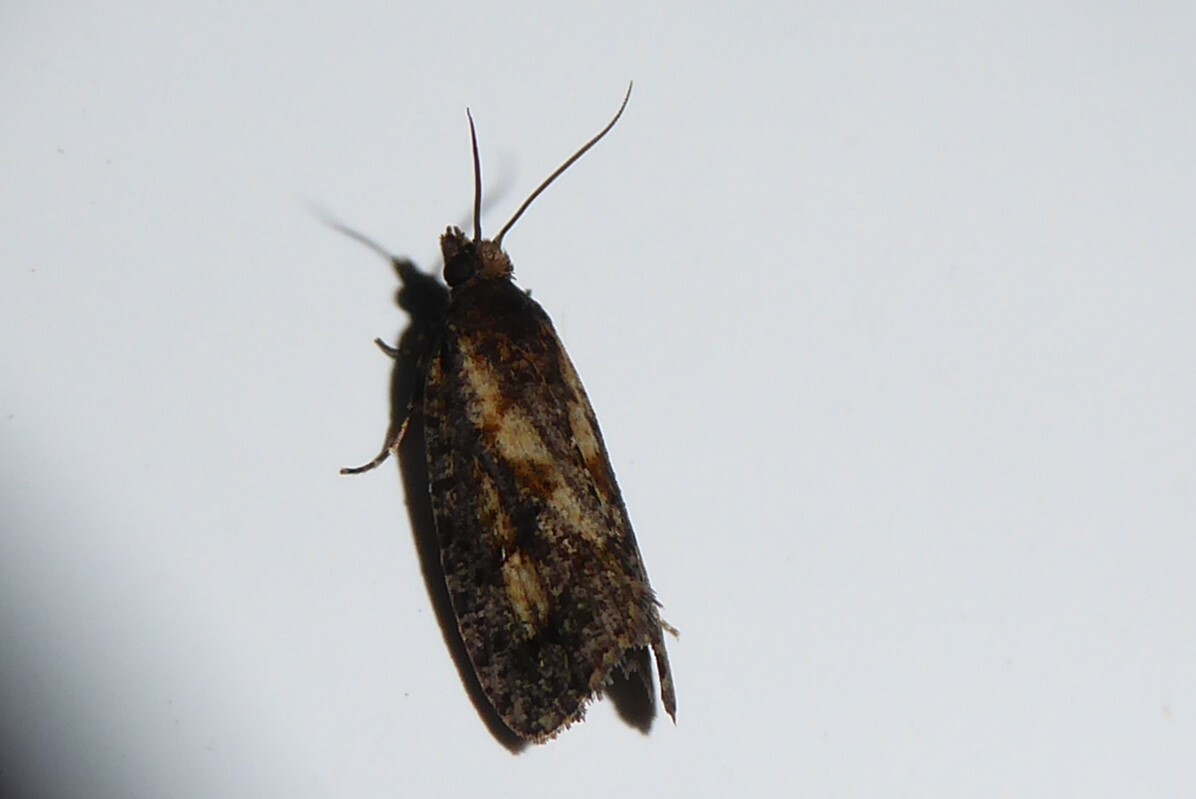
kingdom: Animalia
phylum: Arthropoda
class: Insecta
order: Lepidoptera
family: Tortricidae
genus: Cryptaspasma
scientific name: Cryptaspasma querula
